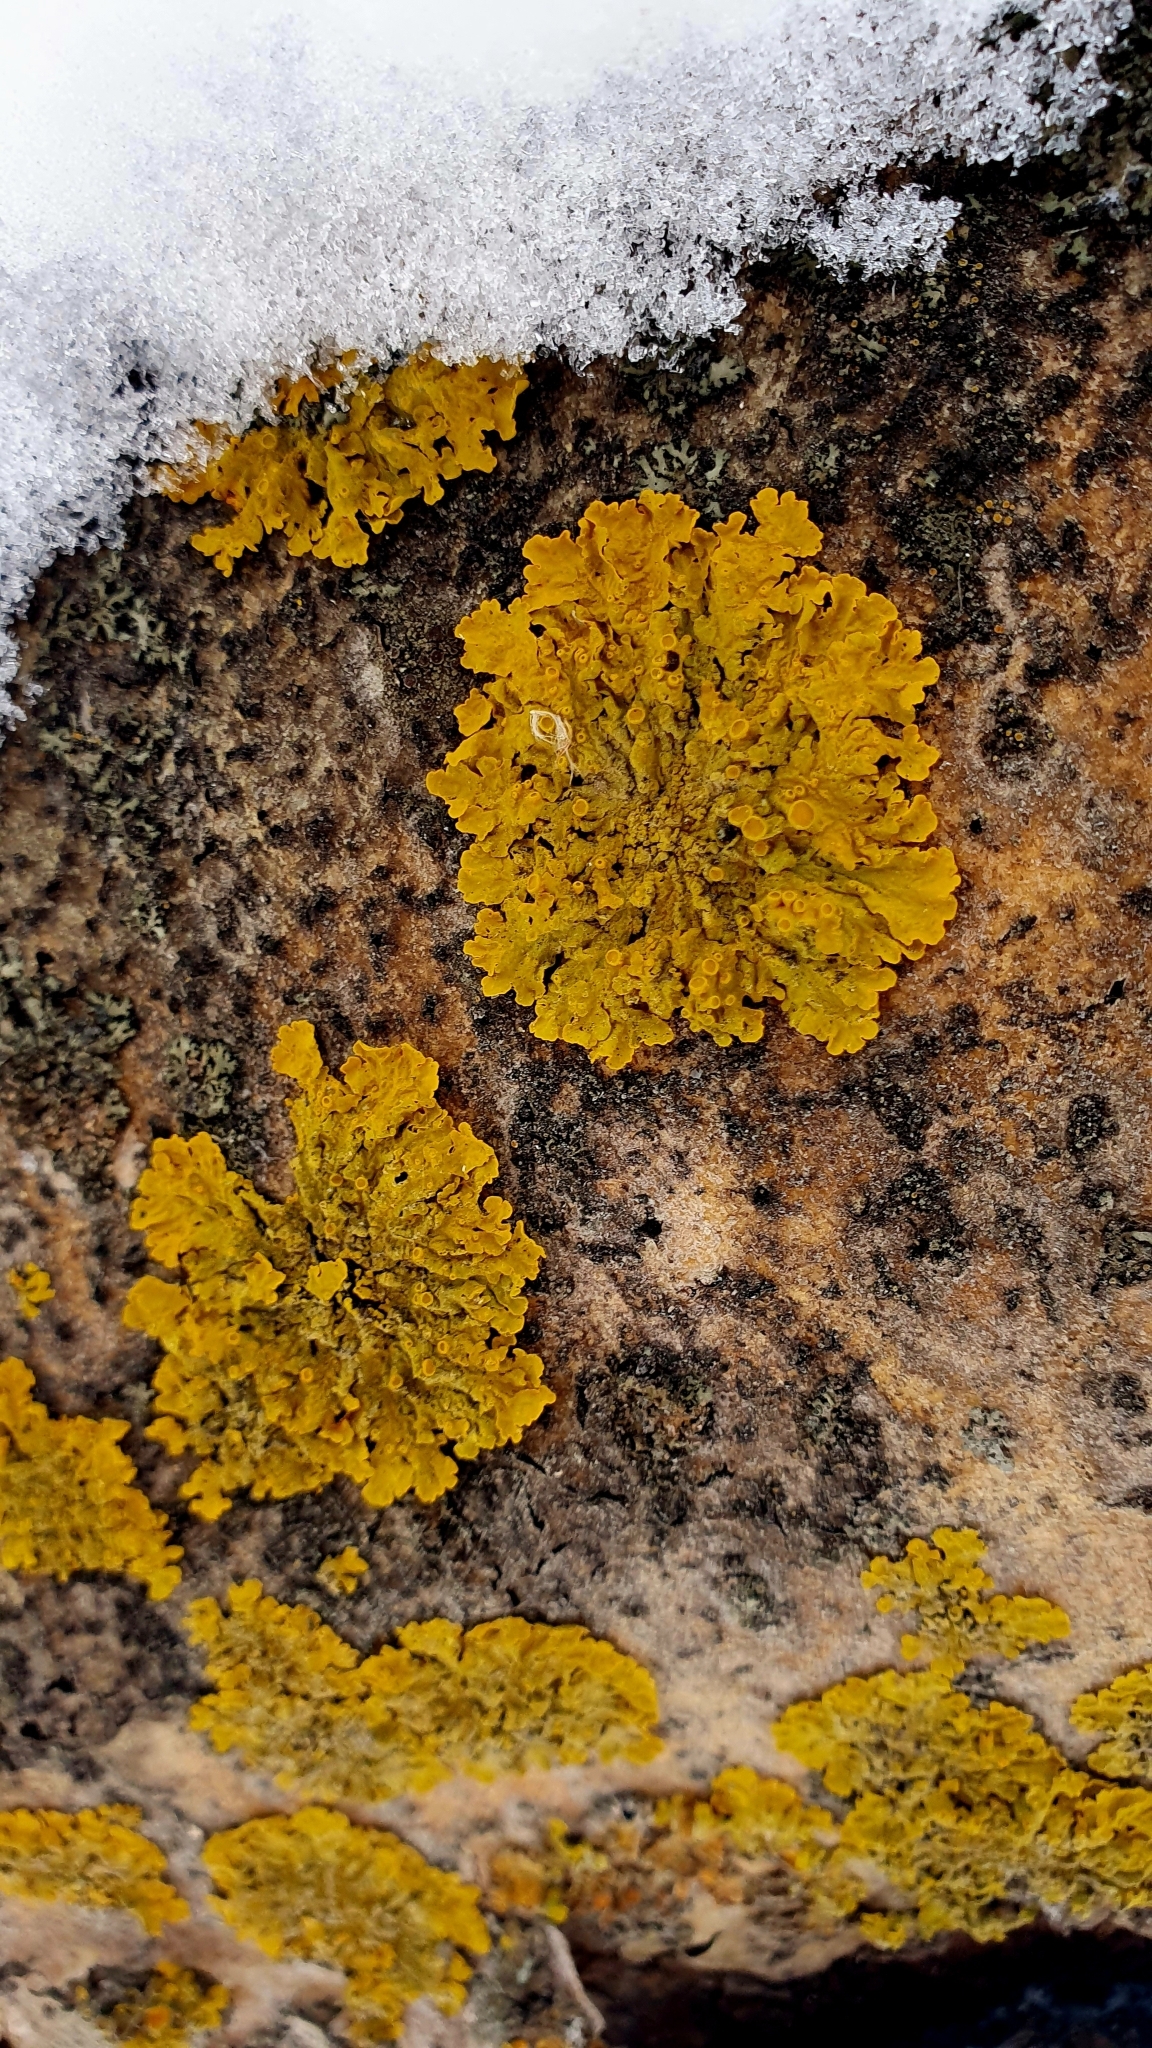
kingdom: Fungi
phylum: Ascomycota
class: Lecanoromycetes
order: Teloschistales
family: Teloschistaceae
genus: Xanthoria
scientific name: Xanthoria parietina
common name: Common orange lichen
